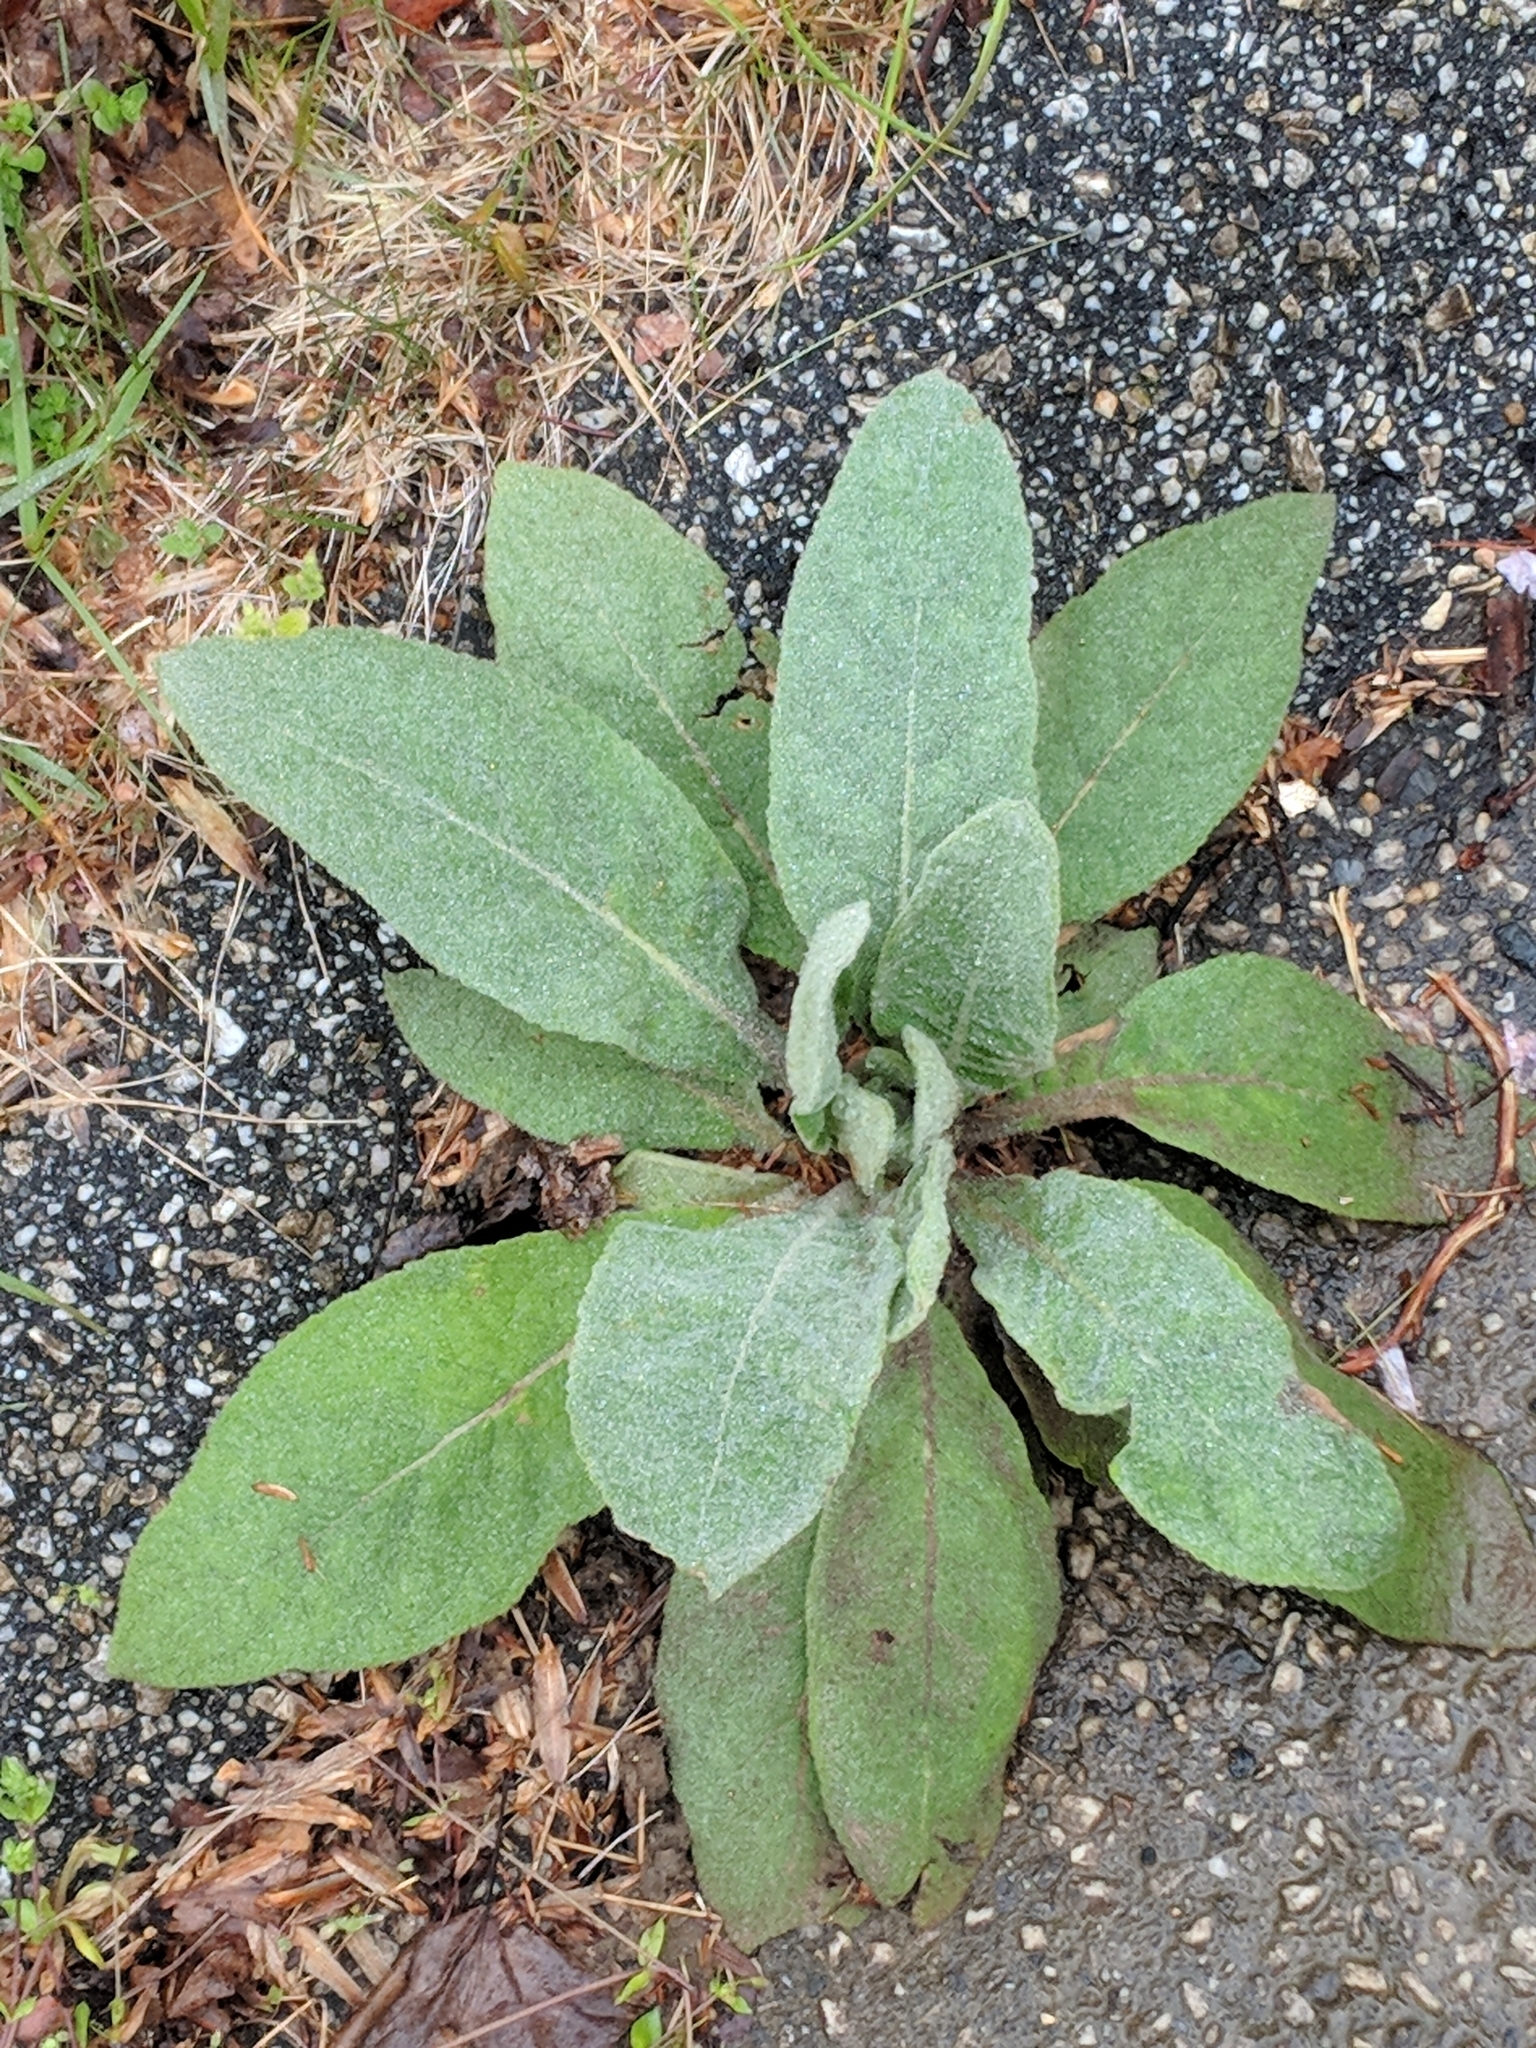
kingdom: Plantae
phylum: Tracheophyta
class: Magnoliopsida
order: Lamiales
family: Scrophulariaceae
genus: Verbascum
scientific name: Verbascum thapsus
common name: Common mullein
